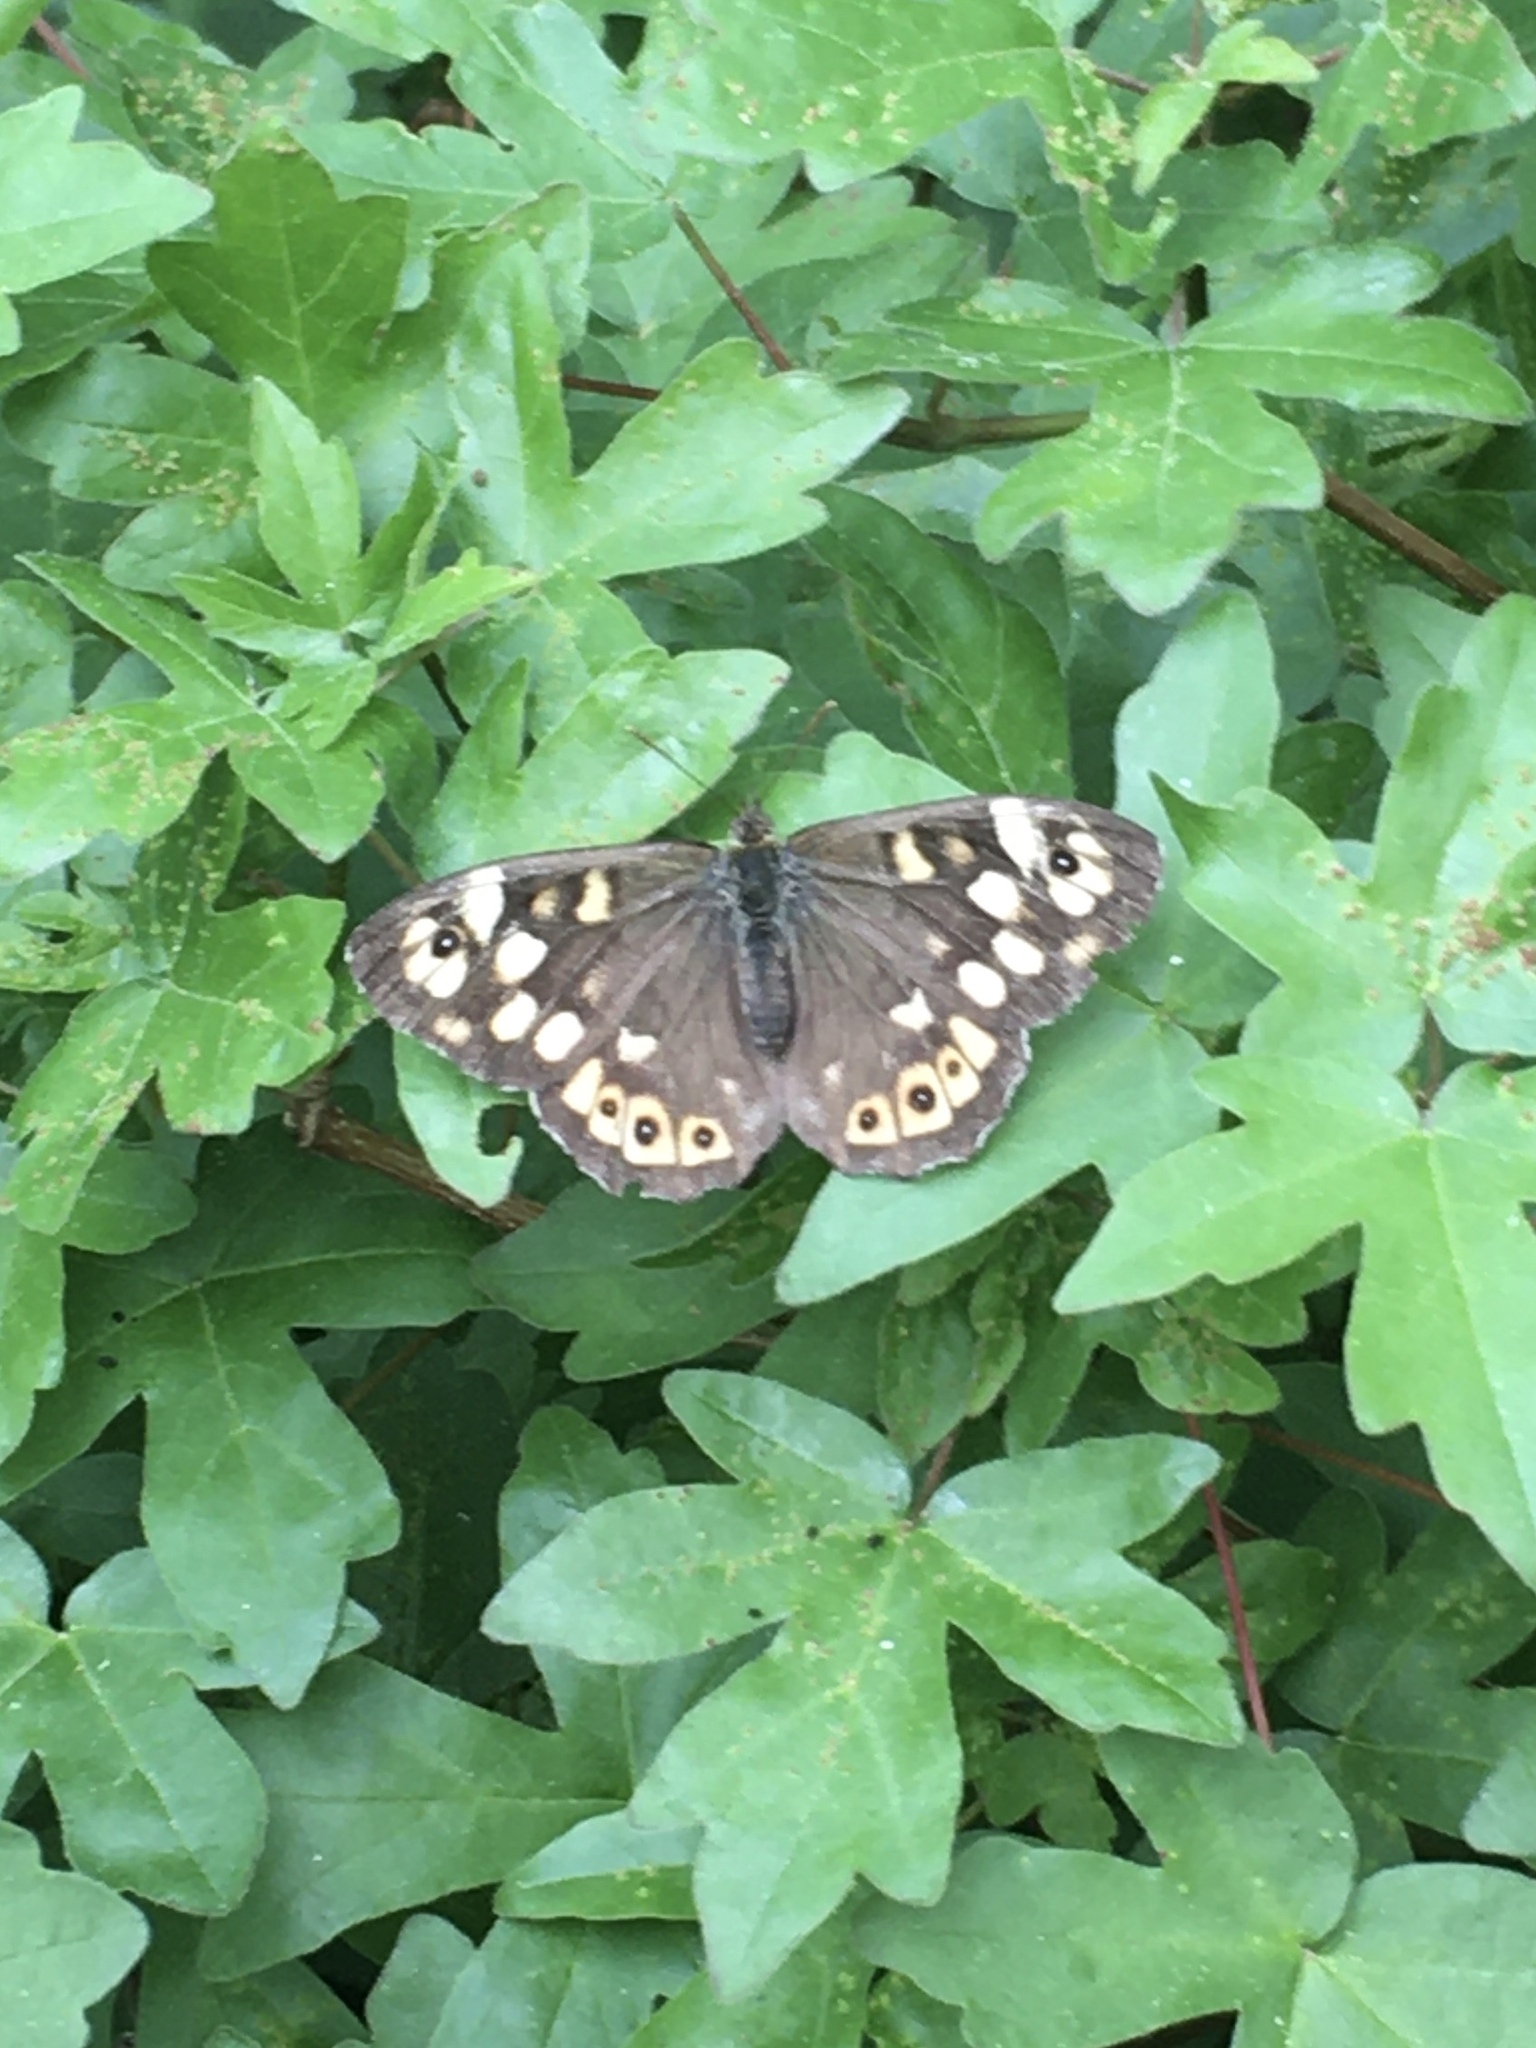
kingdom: Animalia
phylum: Arthropoda
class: Insecta
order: Lepidoptera
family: Nymphalidae
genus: Pararge
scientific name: Pararge aegeria
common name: Speckled wood
